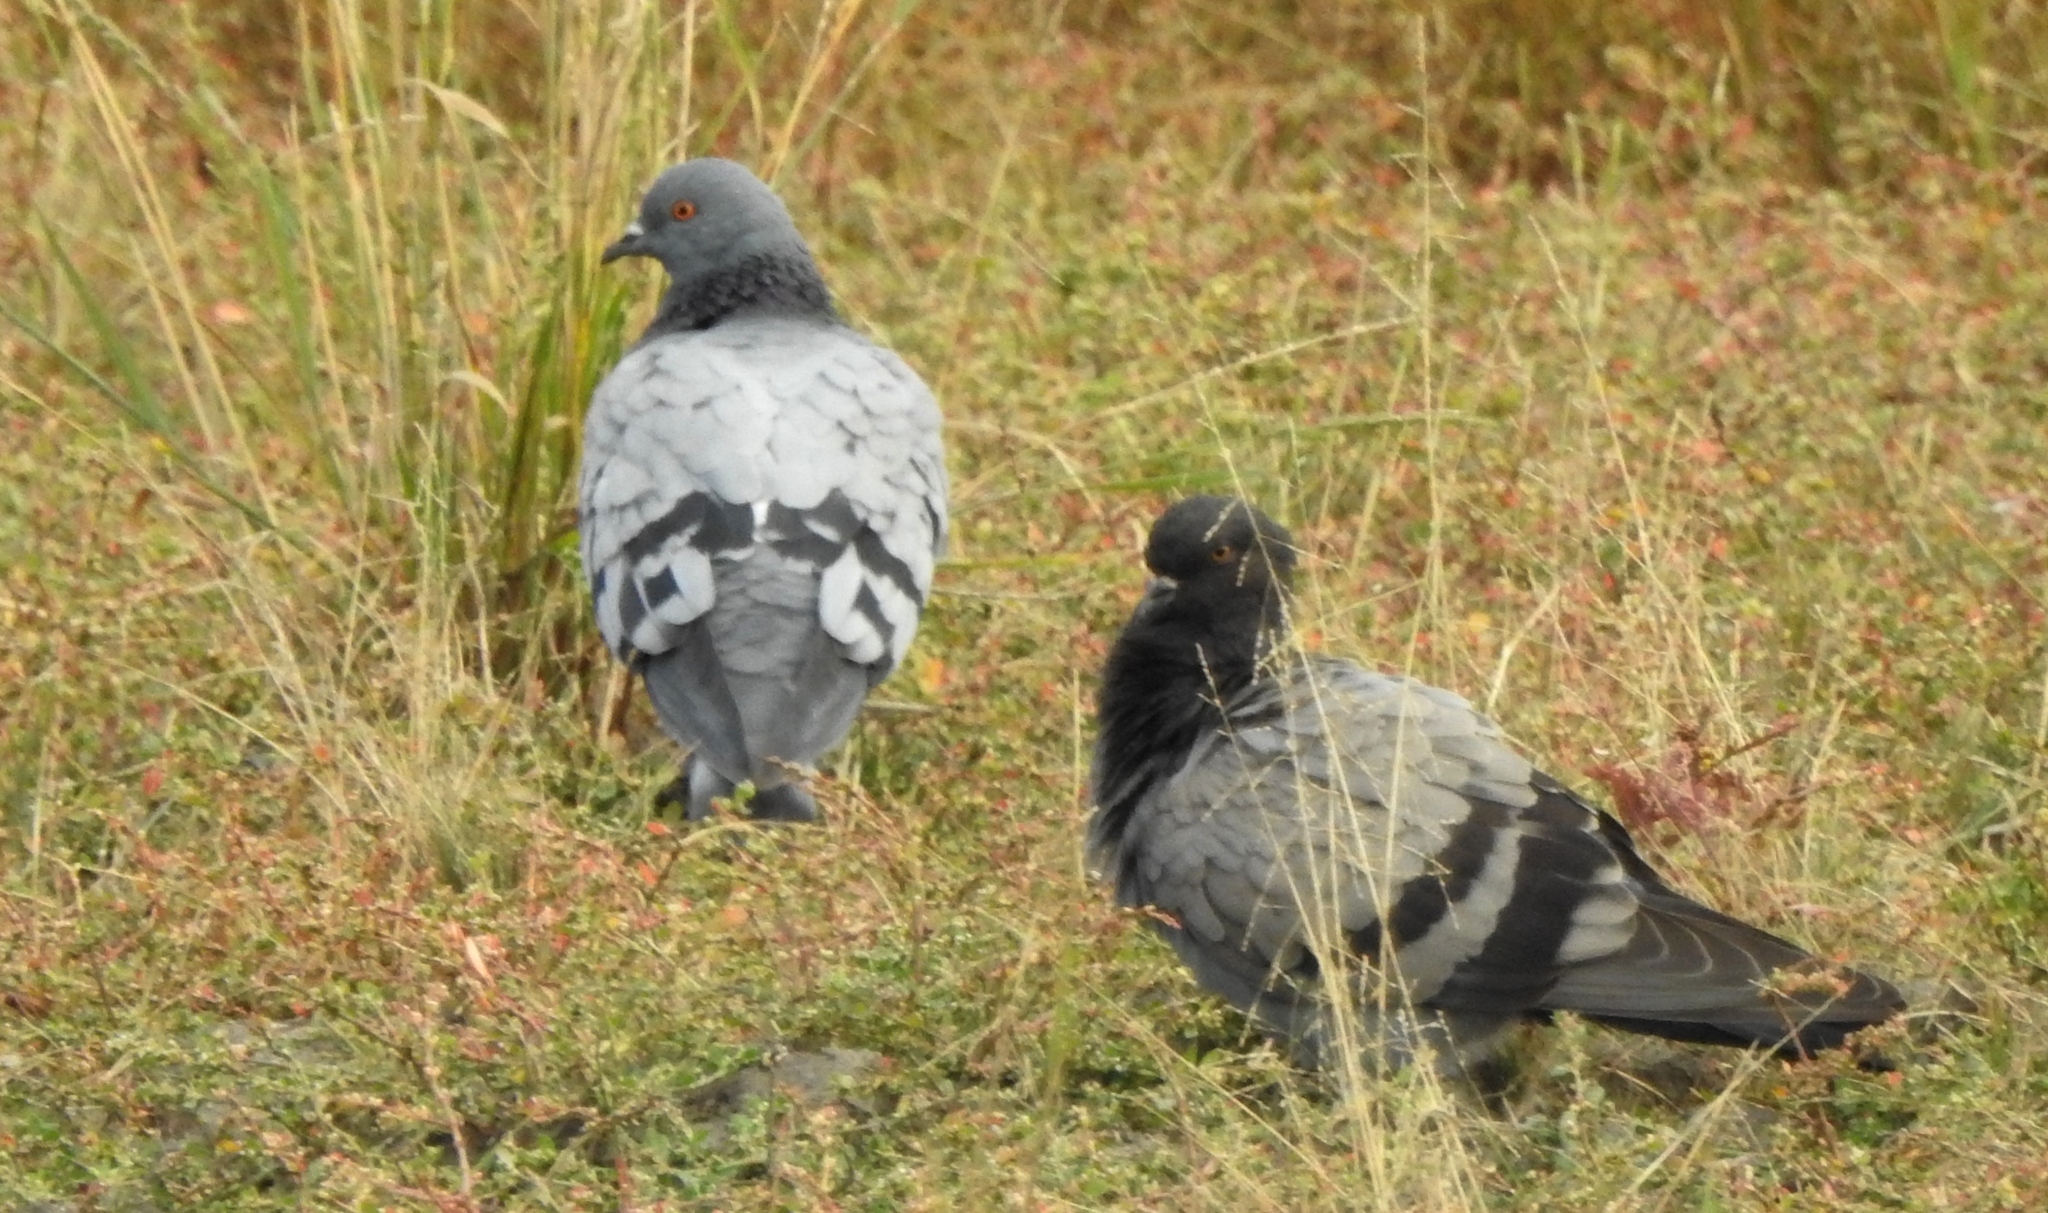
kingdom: Animalia
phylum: Chordata
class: Aves
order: Columbiformes
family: Columbidae
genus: Columba
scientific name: Columba rupestris
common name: Hill pigeon
